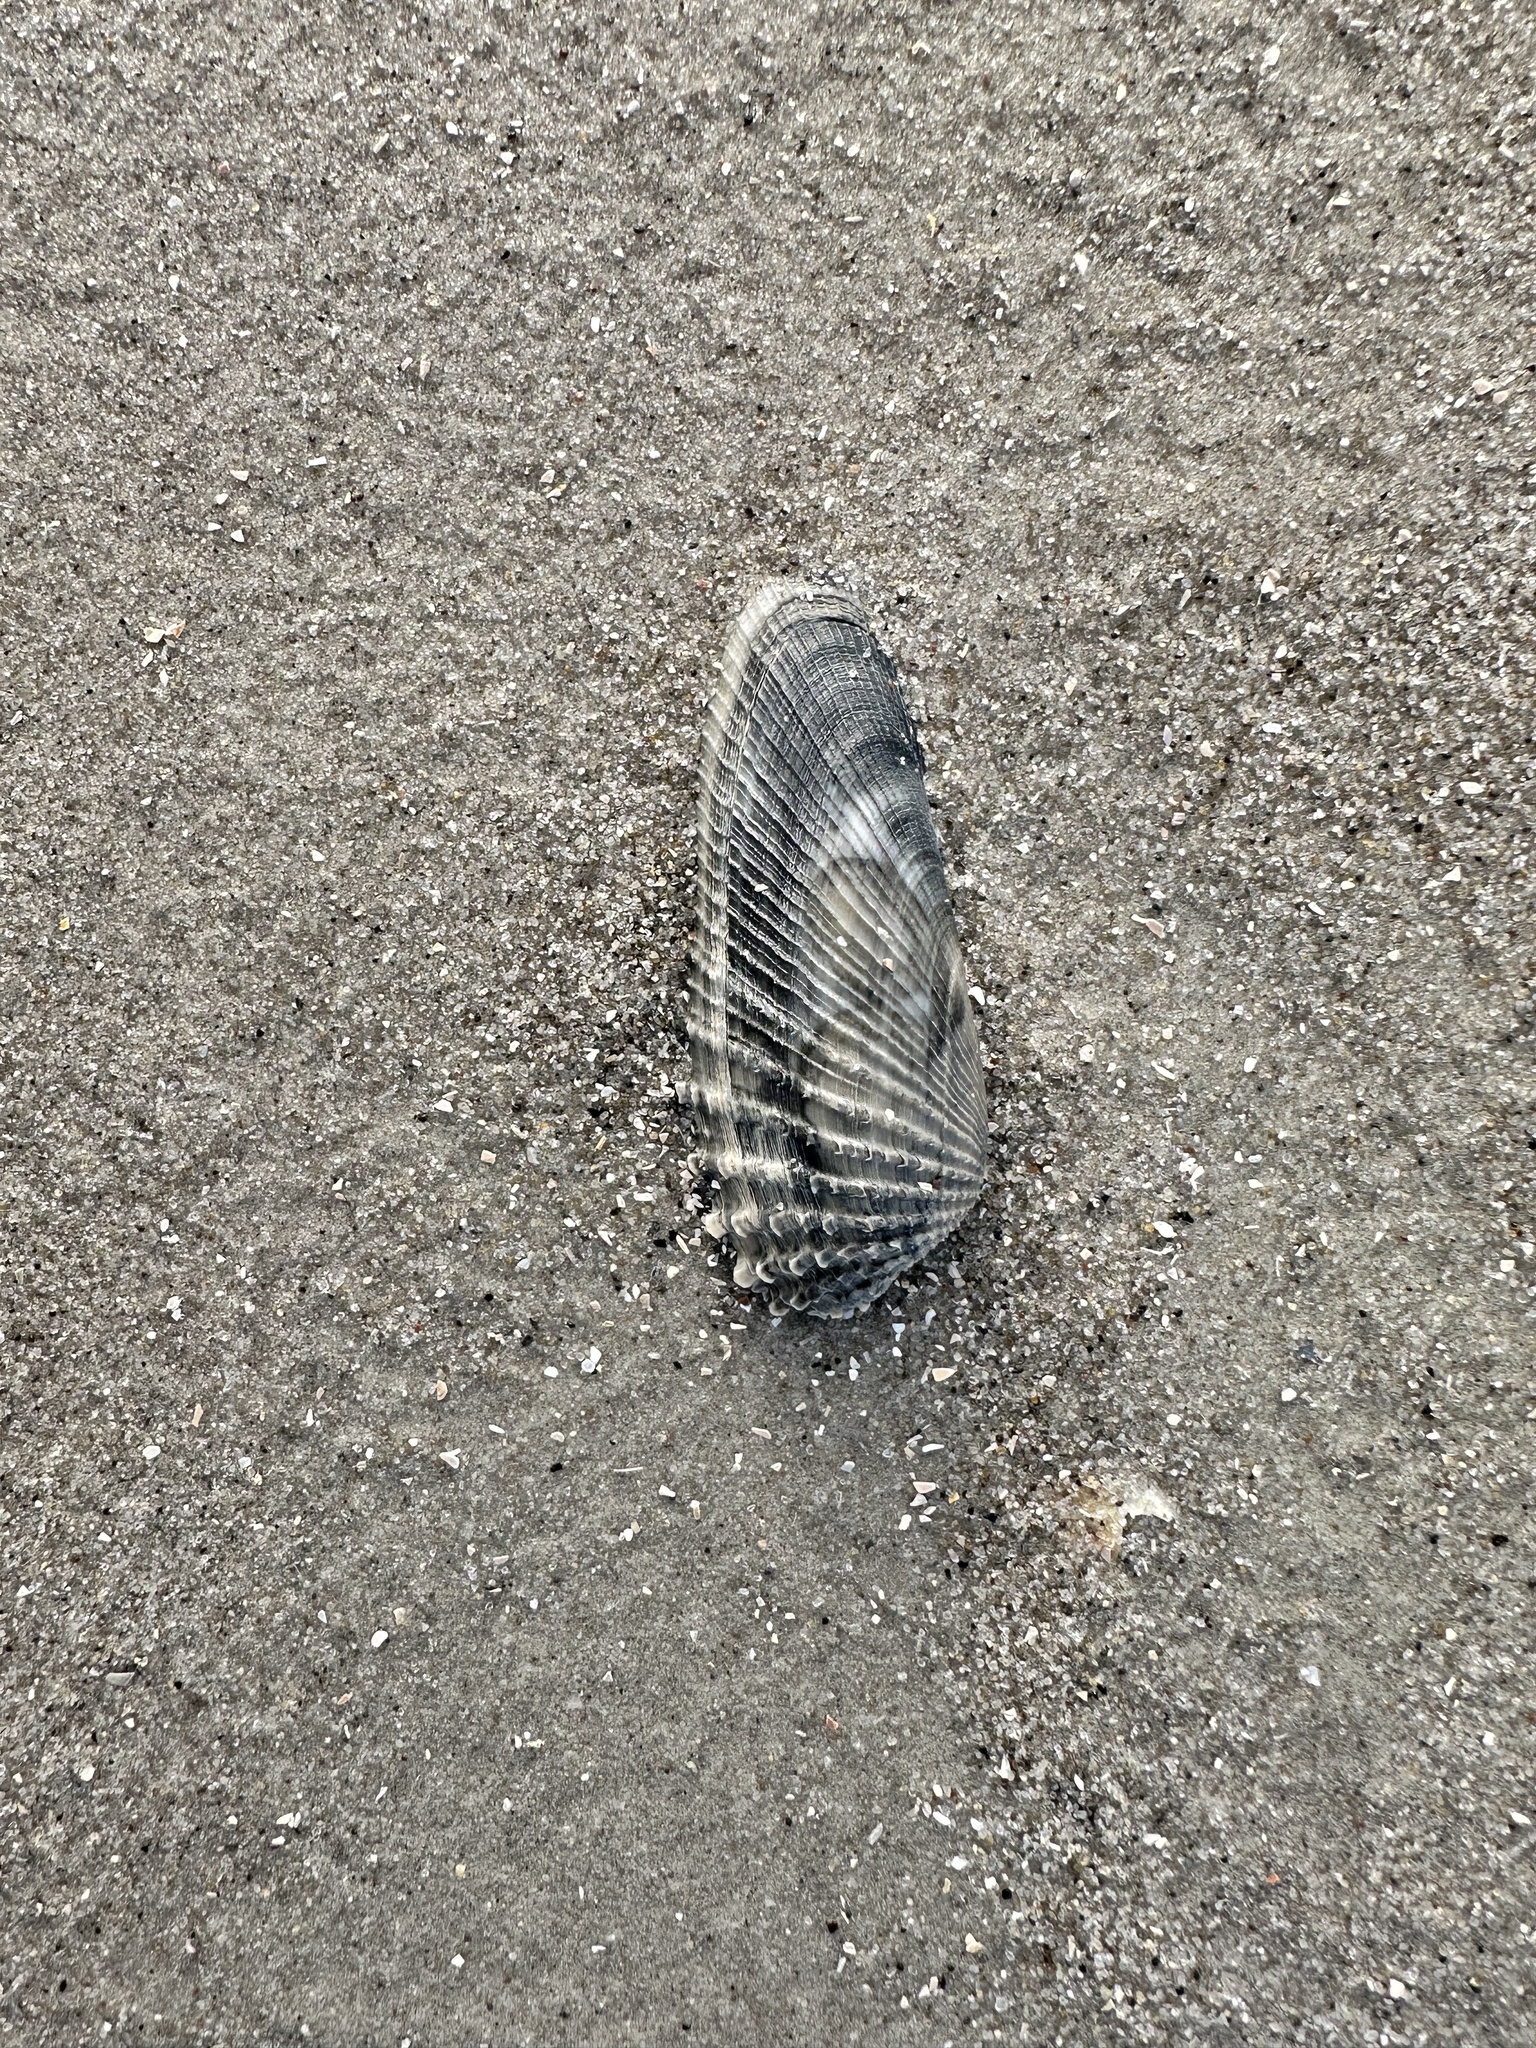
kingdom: Animalia
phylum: Mollusca
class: Bivalvia
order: Venerida
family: Veneridae
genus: Petricolaria
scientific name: Petricolaria pholadiformis
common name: American piddock
